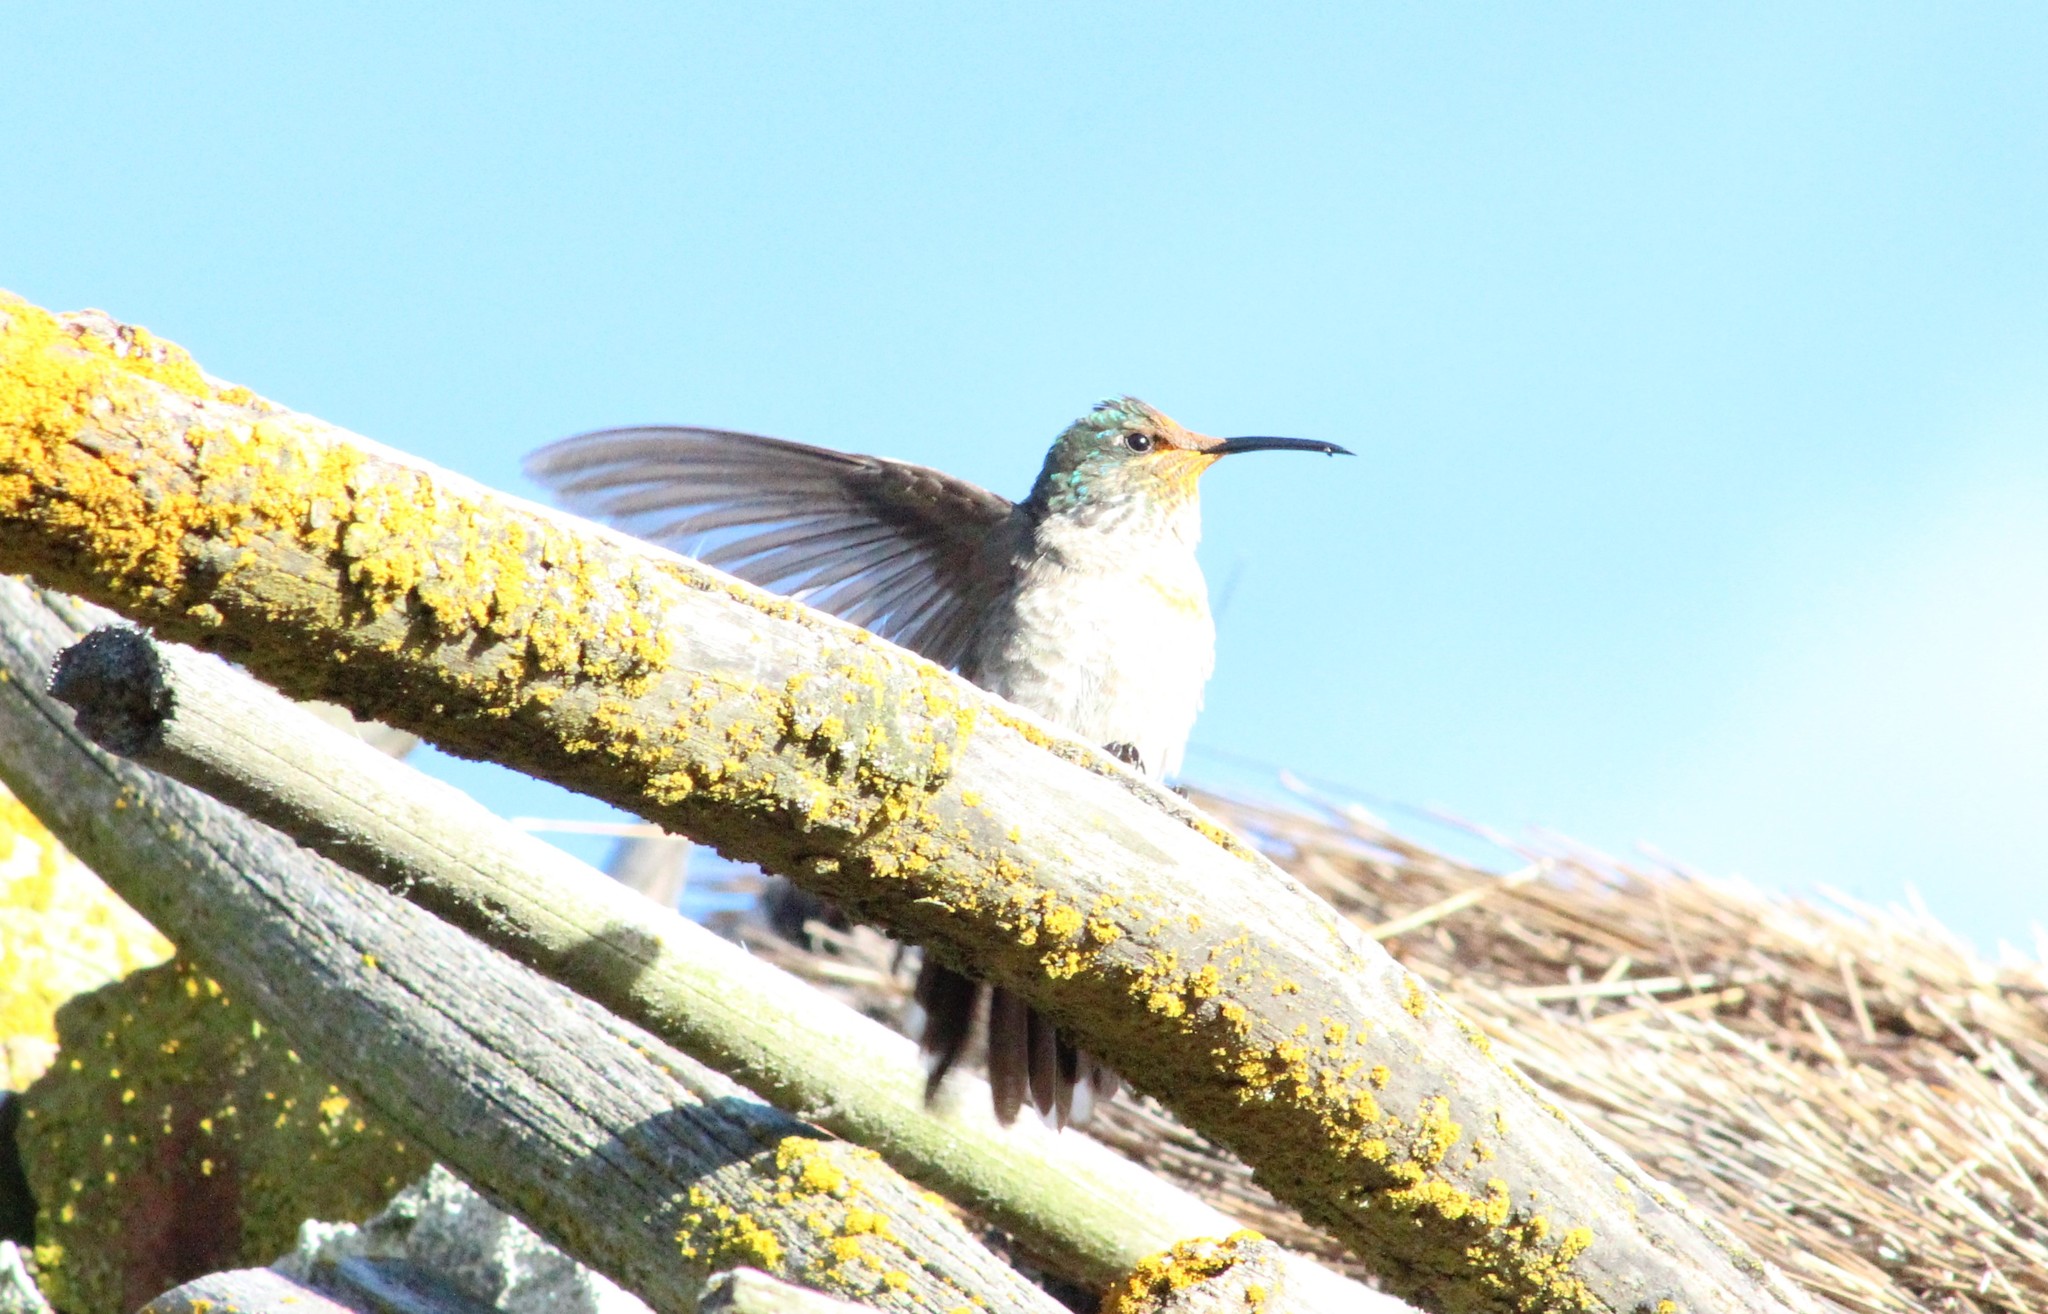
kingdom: Animalia
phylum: Chordata
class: Aves
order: Apodiformes
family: Trochilidae
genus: Oreotrochilus
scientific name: Oreotrochilus chimborazo
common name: Ecuadorian hillstar
